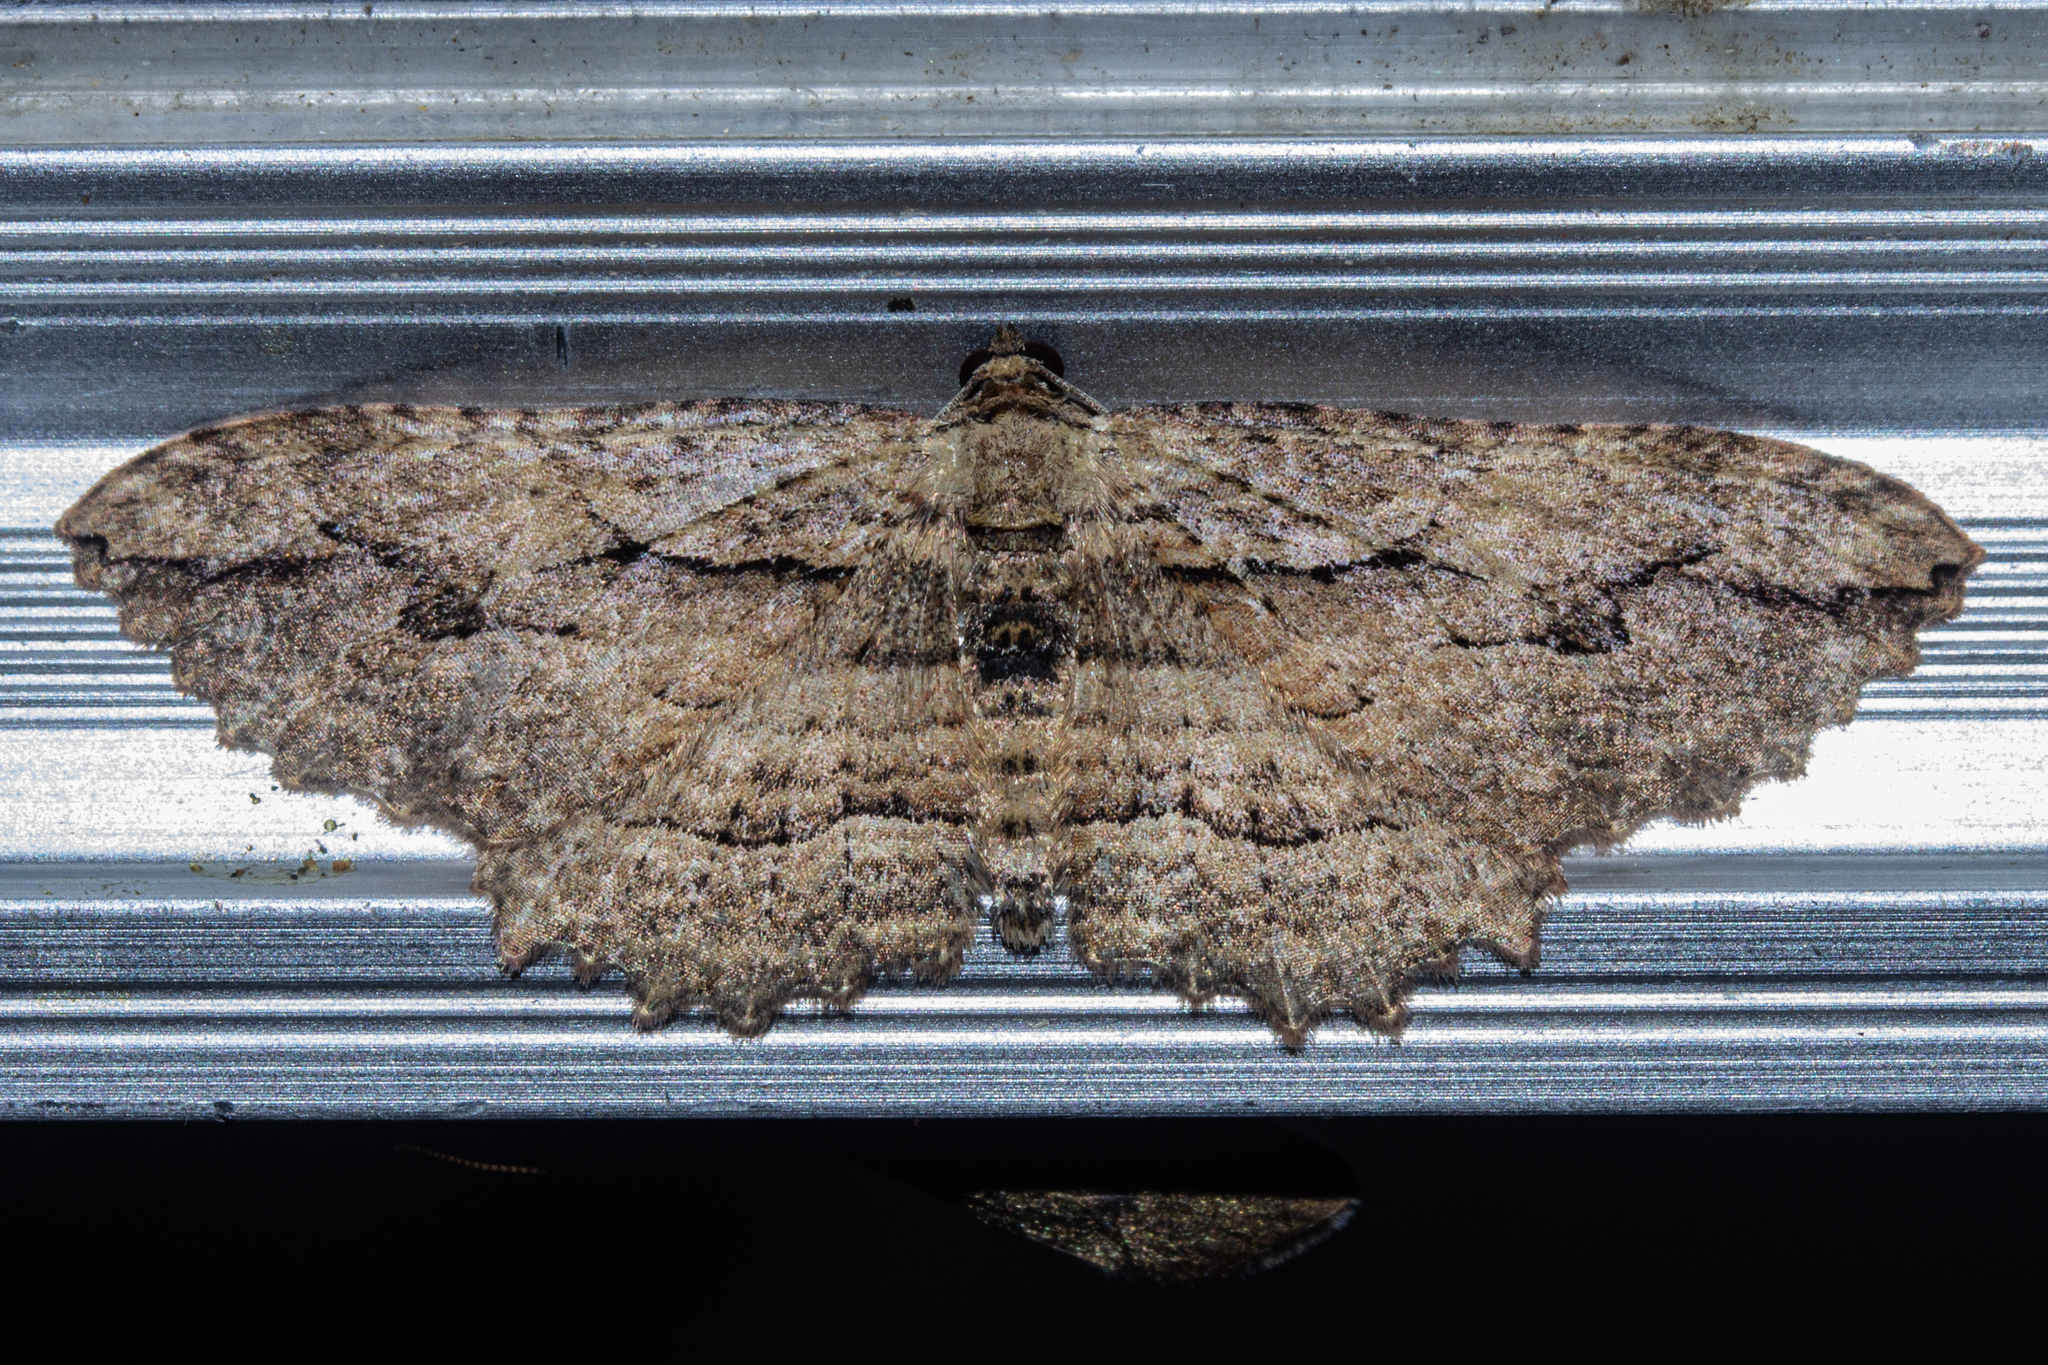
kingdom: Animalia
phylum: Arthropoda
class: Insecta
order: Lepidoptera
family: Geometridae
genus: Austrocidaria
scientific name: Austrocidaria bipartita
